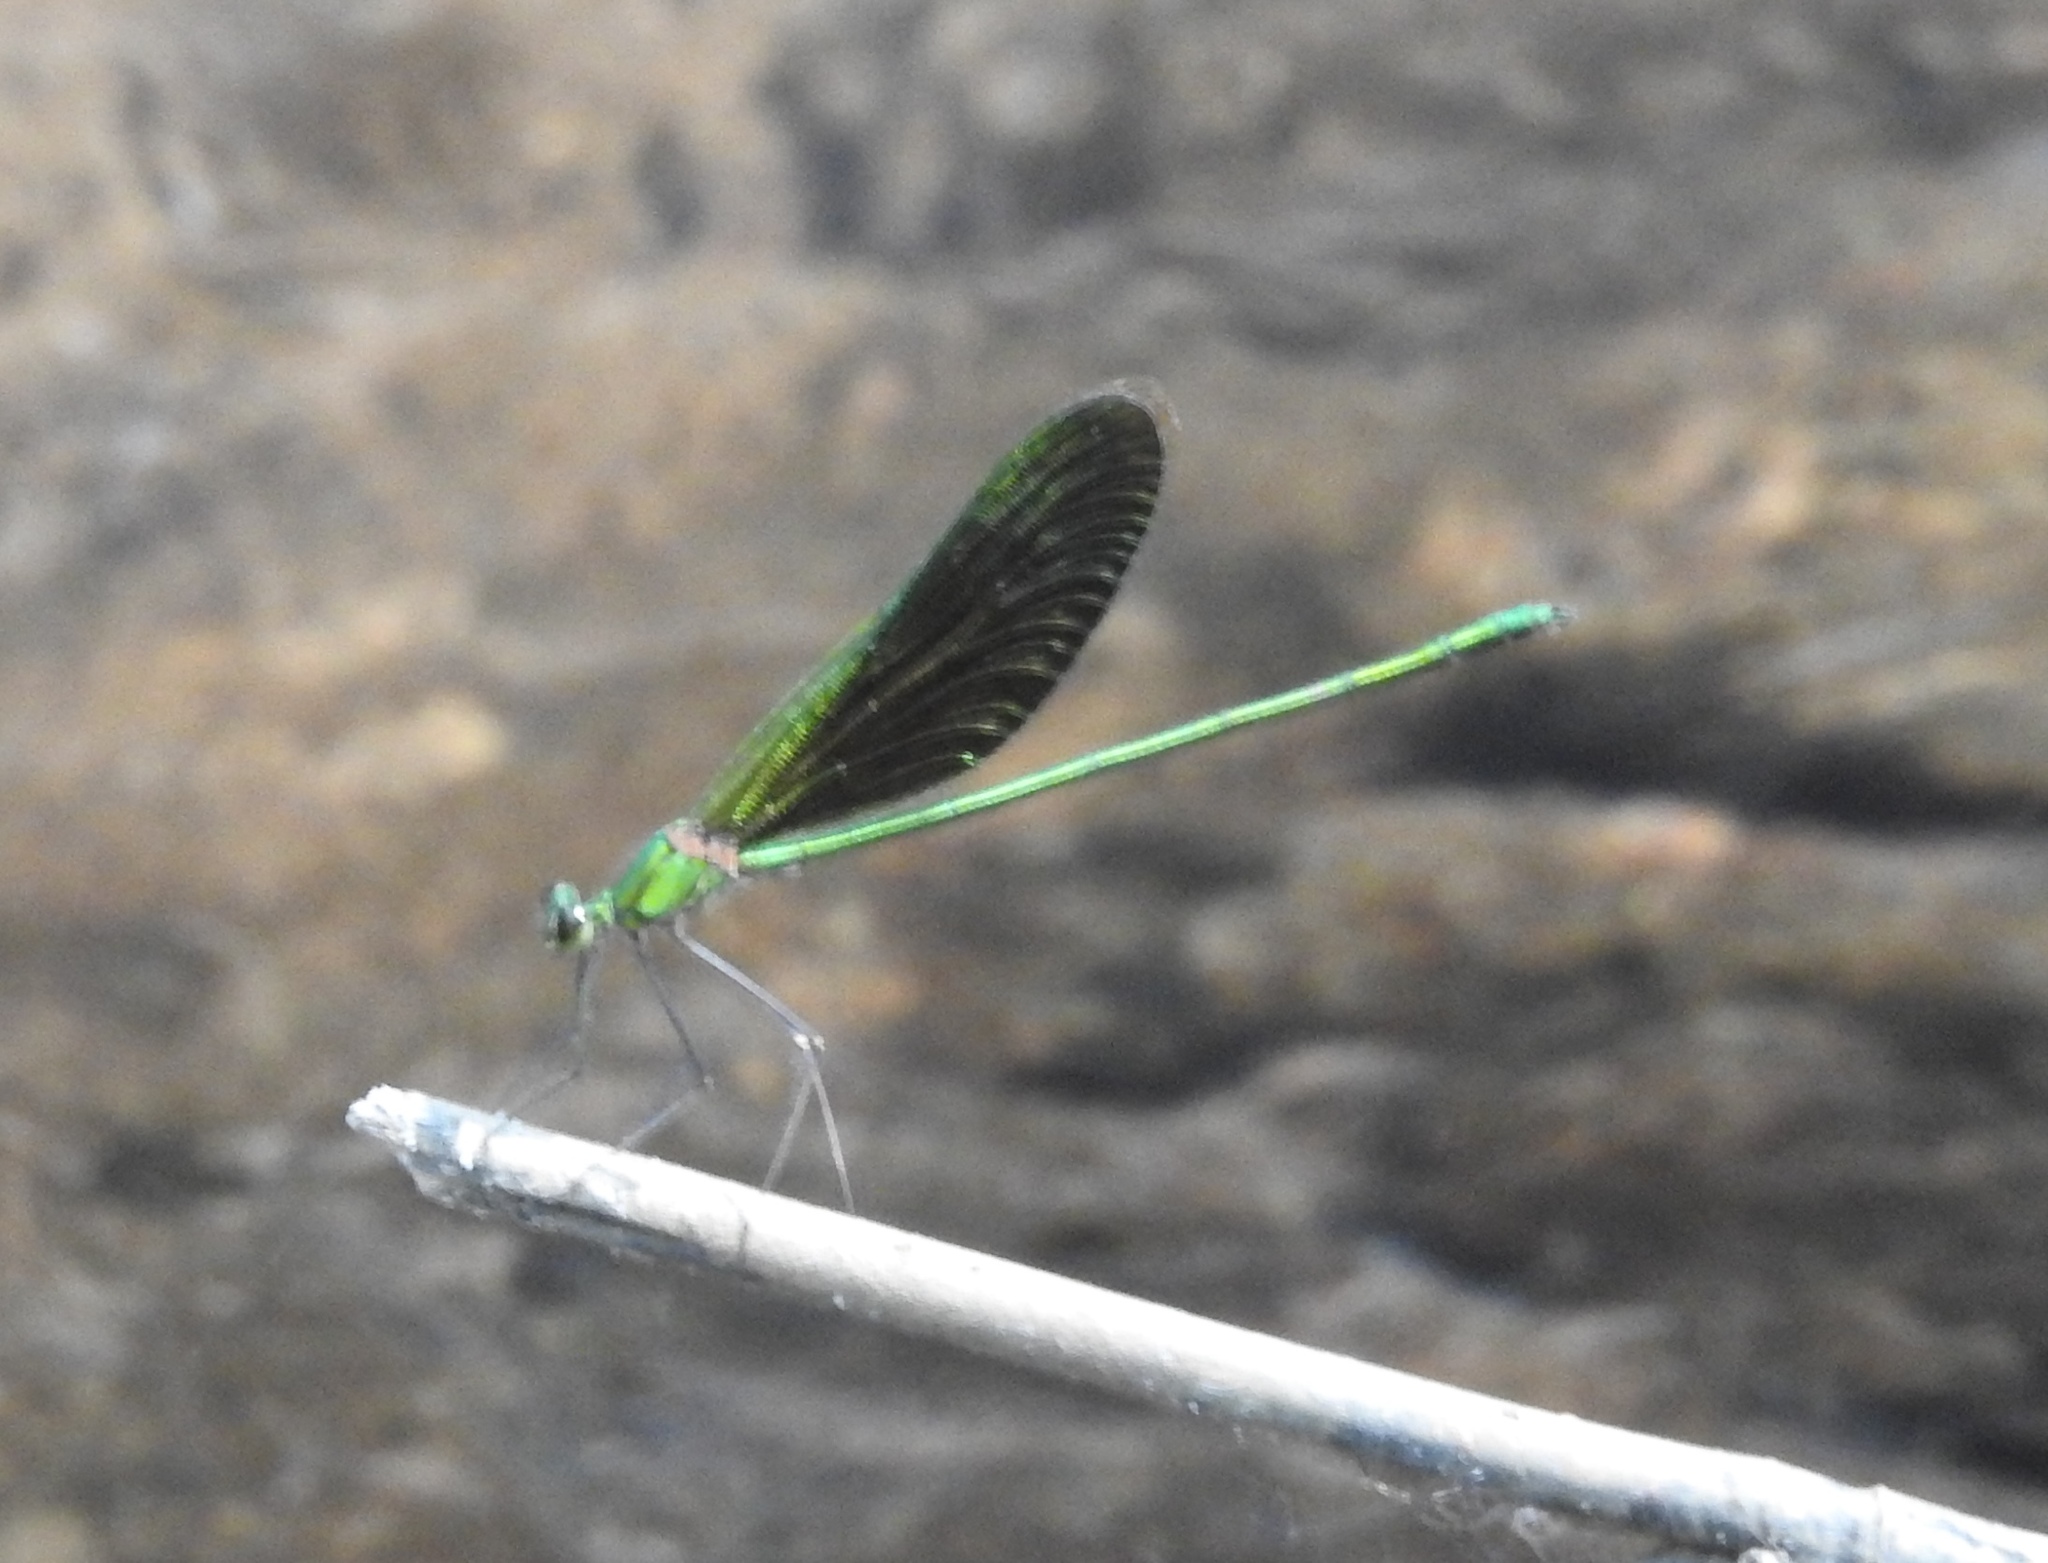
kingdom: Animalia
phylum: Arthropoda
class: Insecta
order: Odonata
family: Calopterygidae
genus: Neurobasis
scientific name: Neurobasis chinensis
